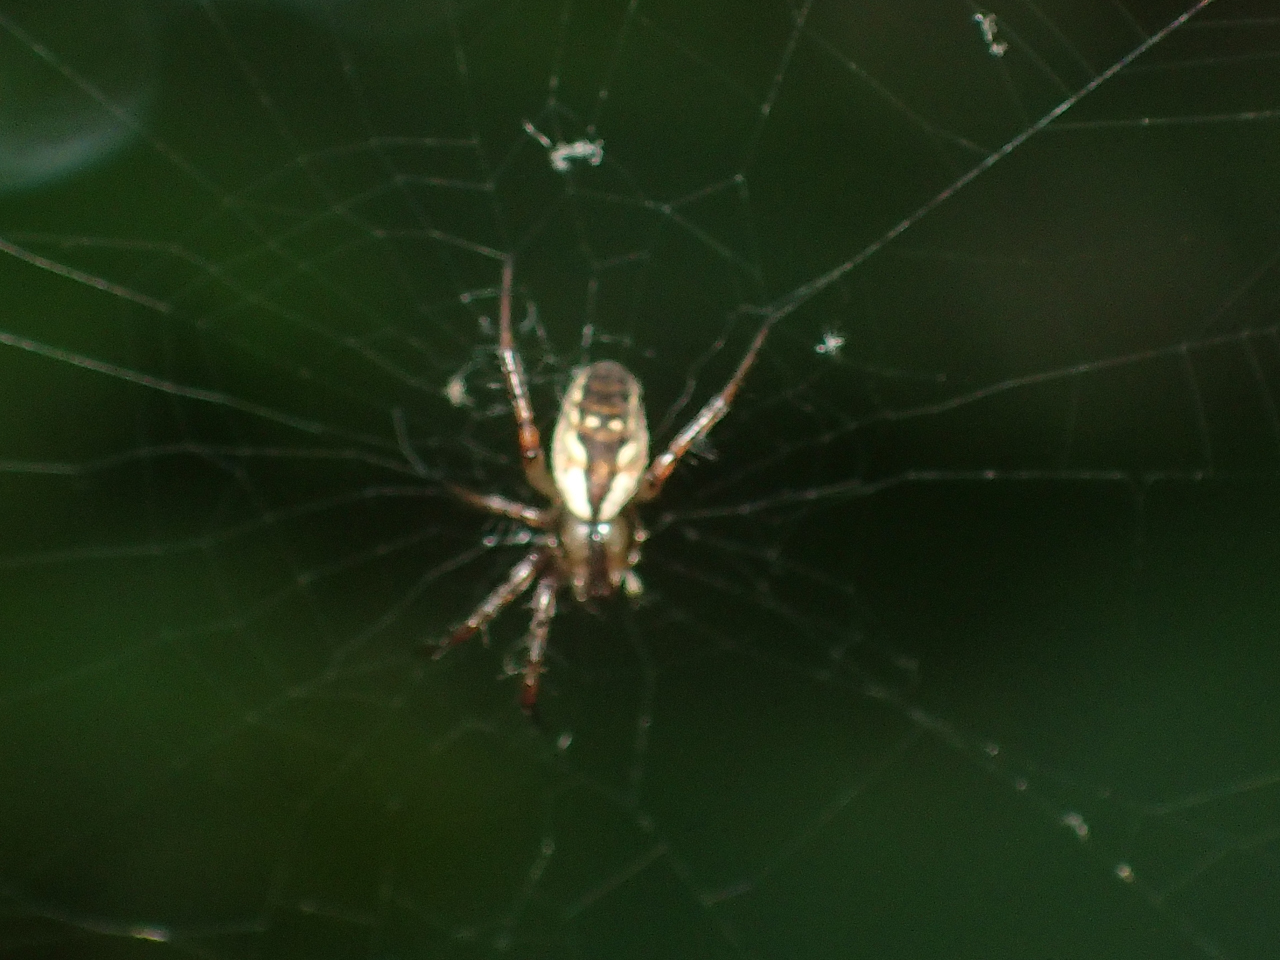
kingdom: Animalia
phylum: Arthropoda
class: Arachnida
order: Araneae
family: Araneidae
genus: Mangora
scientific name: Mangora placida
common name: Tuft-legged orbweaver
